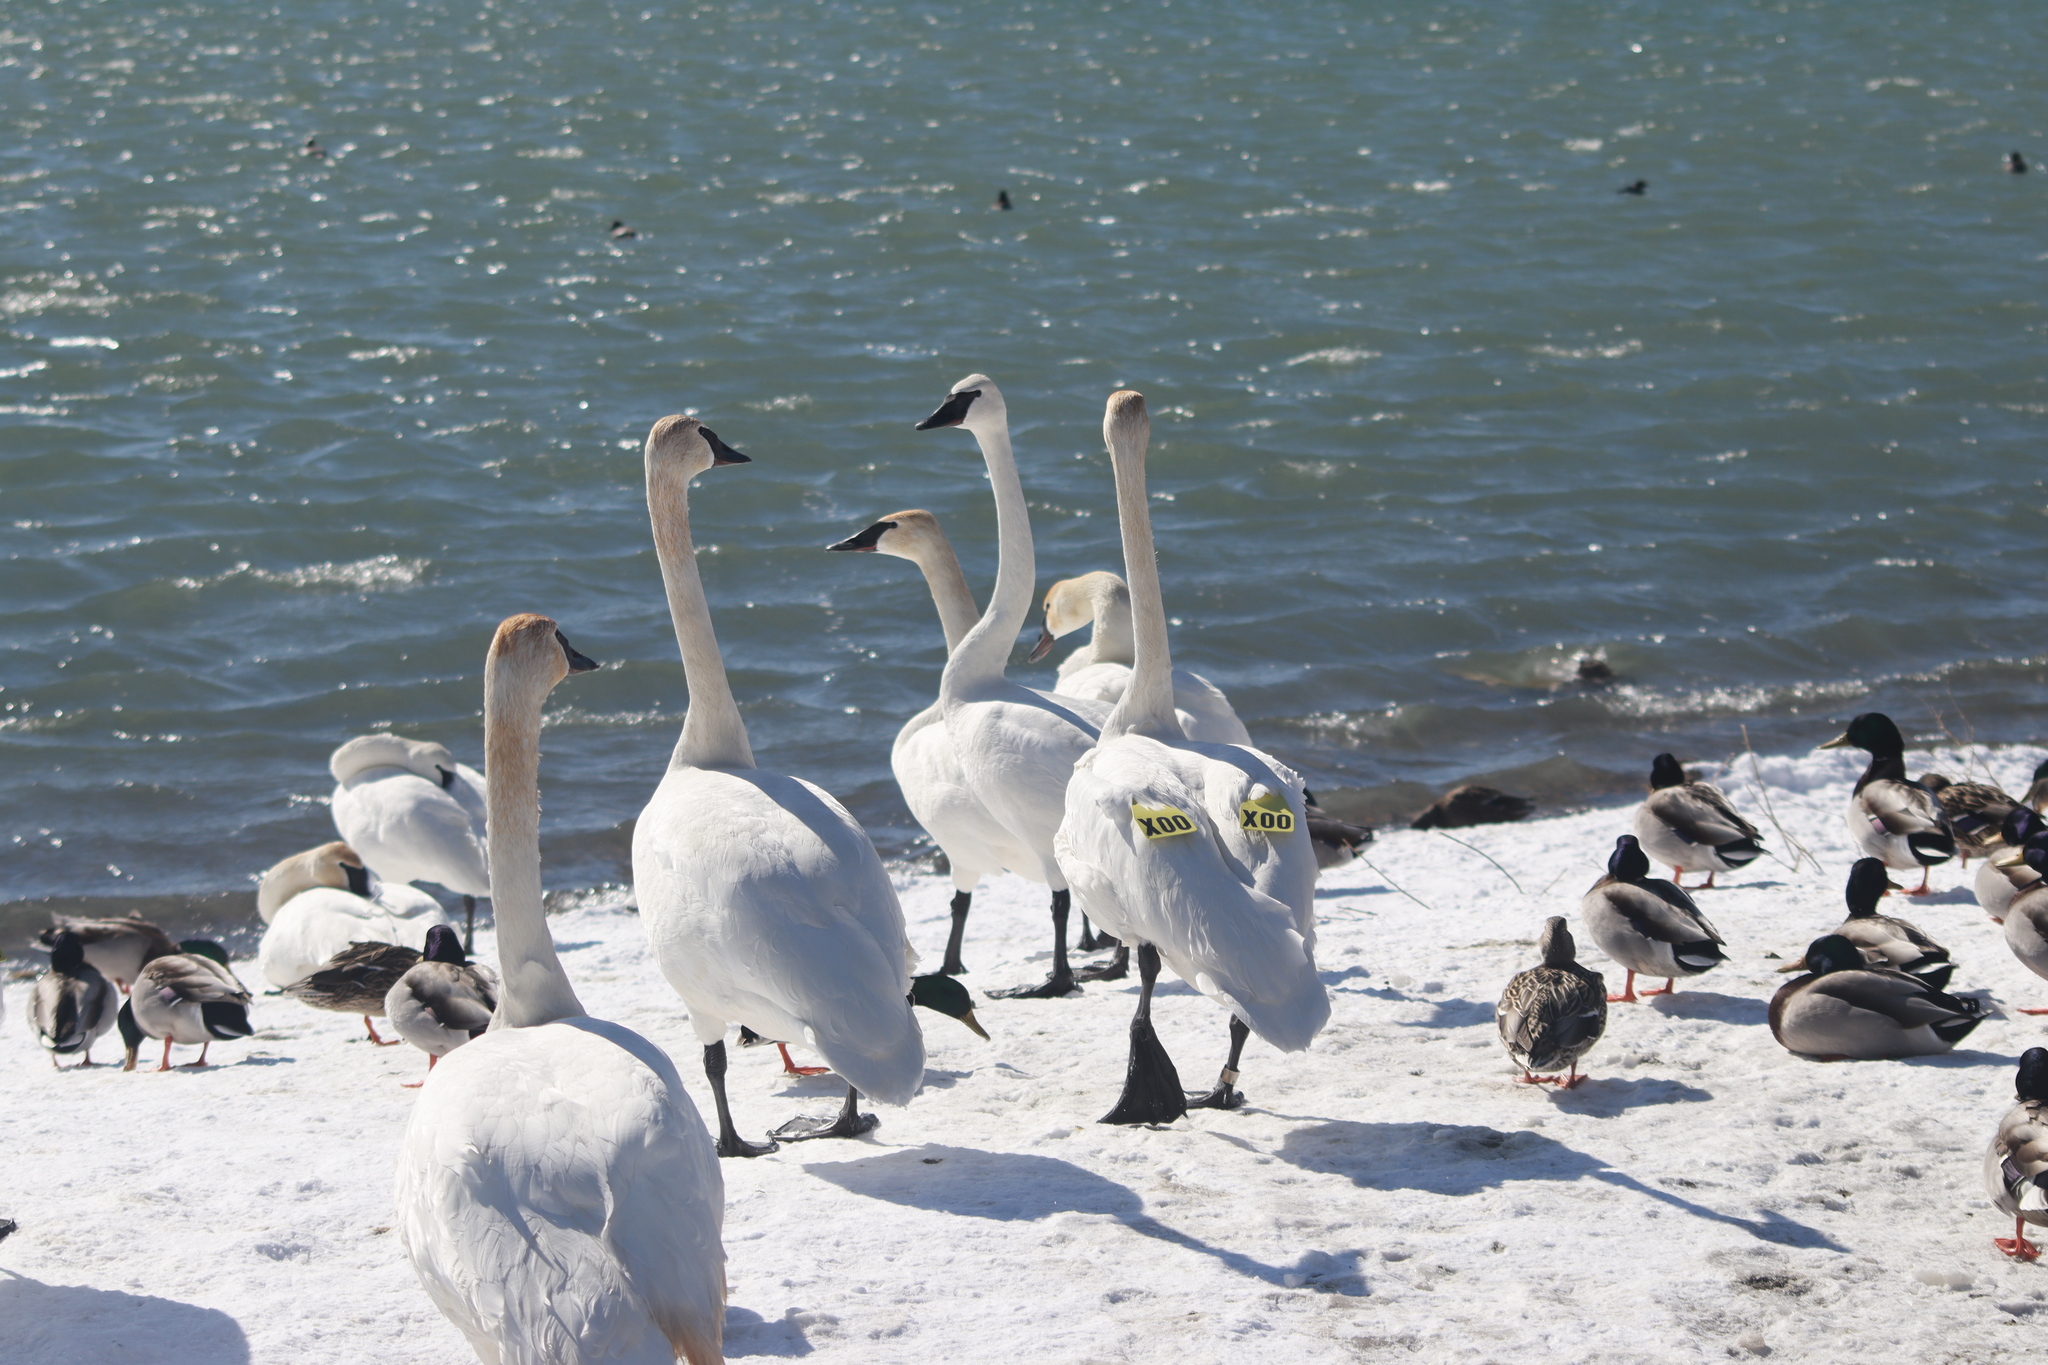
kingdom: Animalia
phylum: Chordata
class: Aves
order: Anseriformes
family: Anatidae
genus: Cygnus
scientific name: Cygnus buccinator
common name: Trumpeter swan
